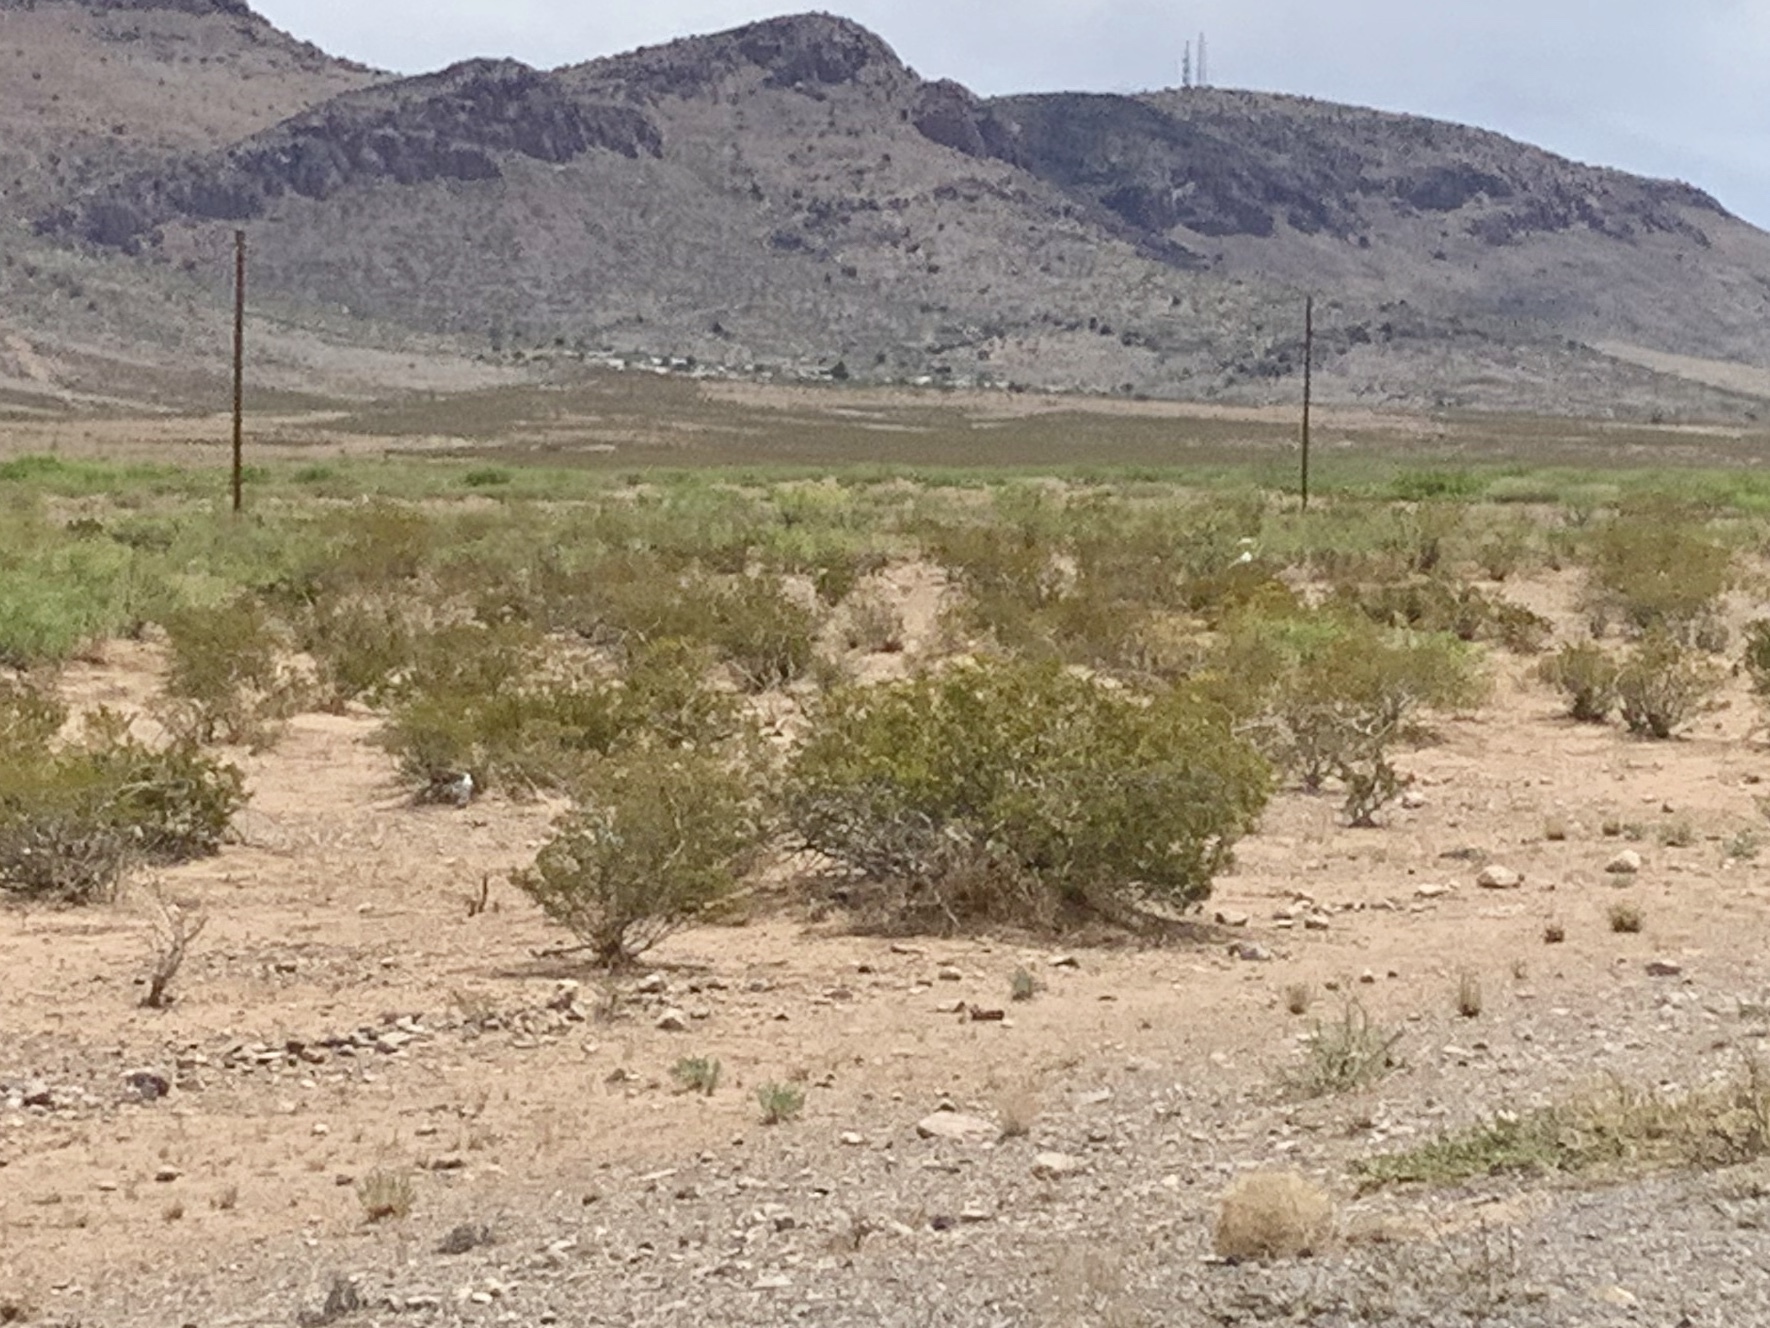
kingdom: Plantae
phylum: Tracheophyta
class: Magnoliopsida
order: Zygophyllales
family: Zygophyllaceae
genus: Larrea
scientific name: Larrea tridentata
